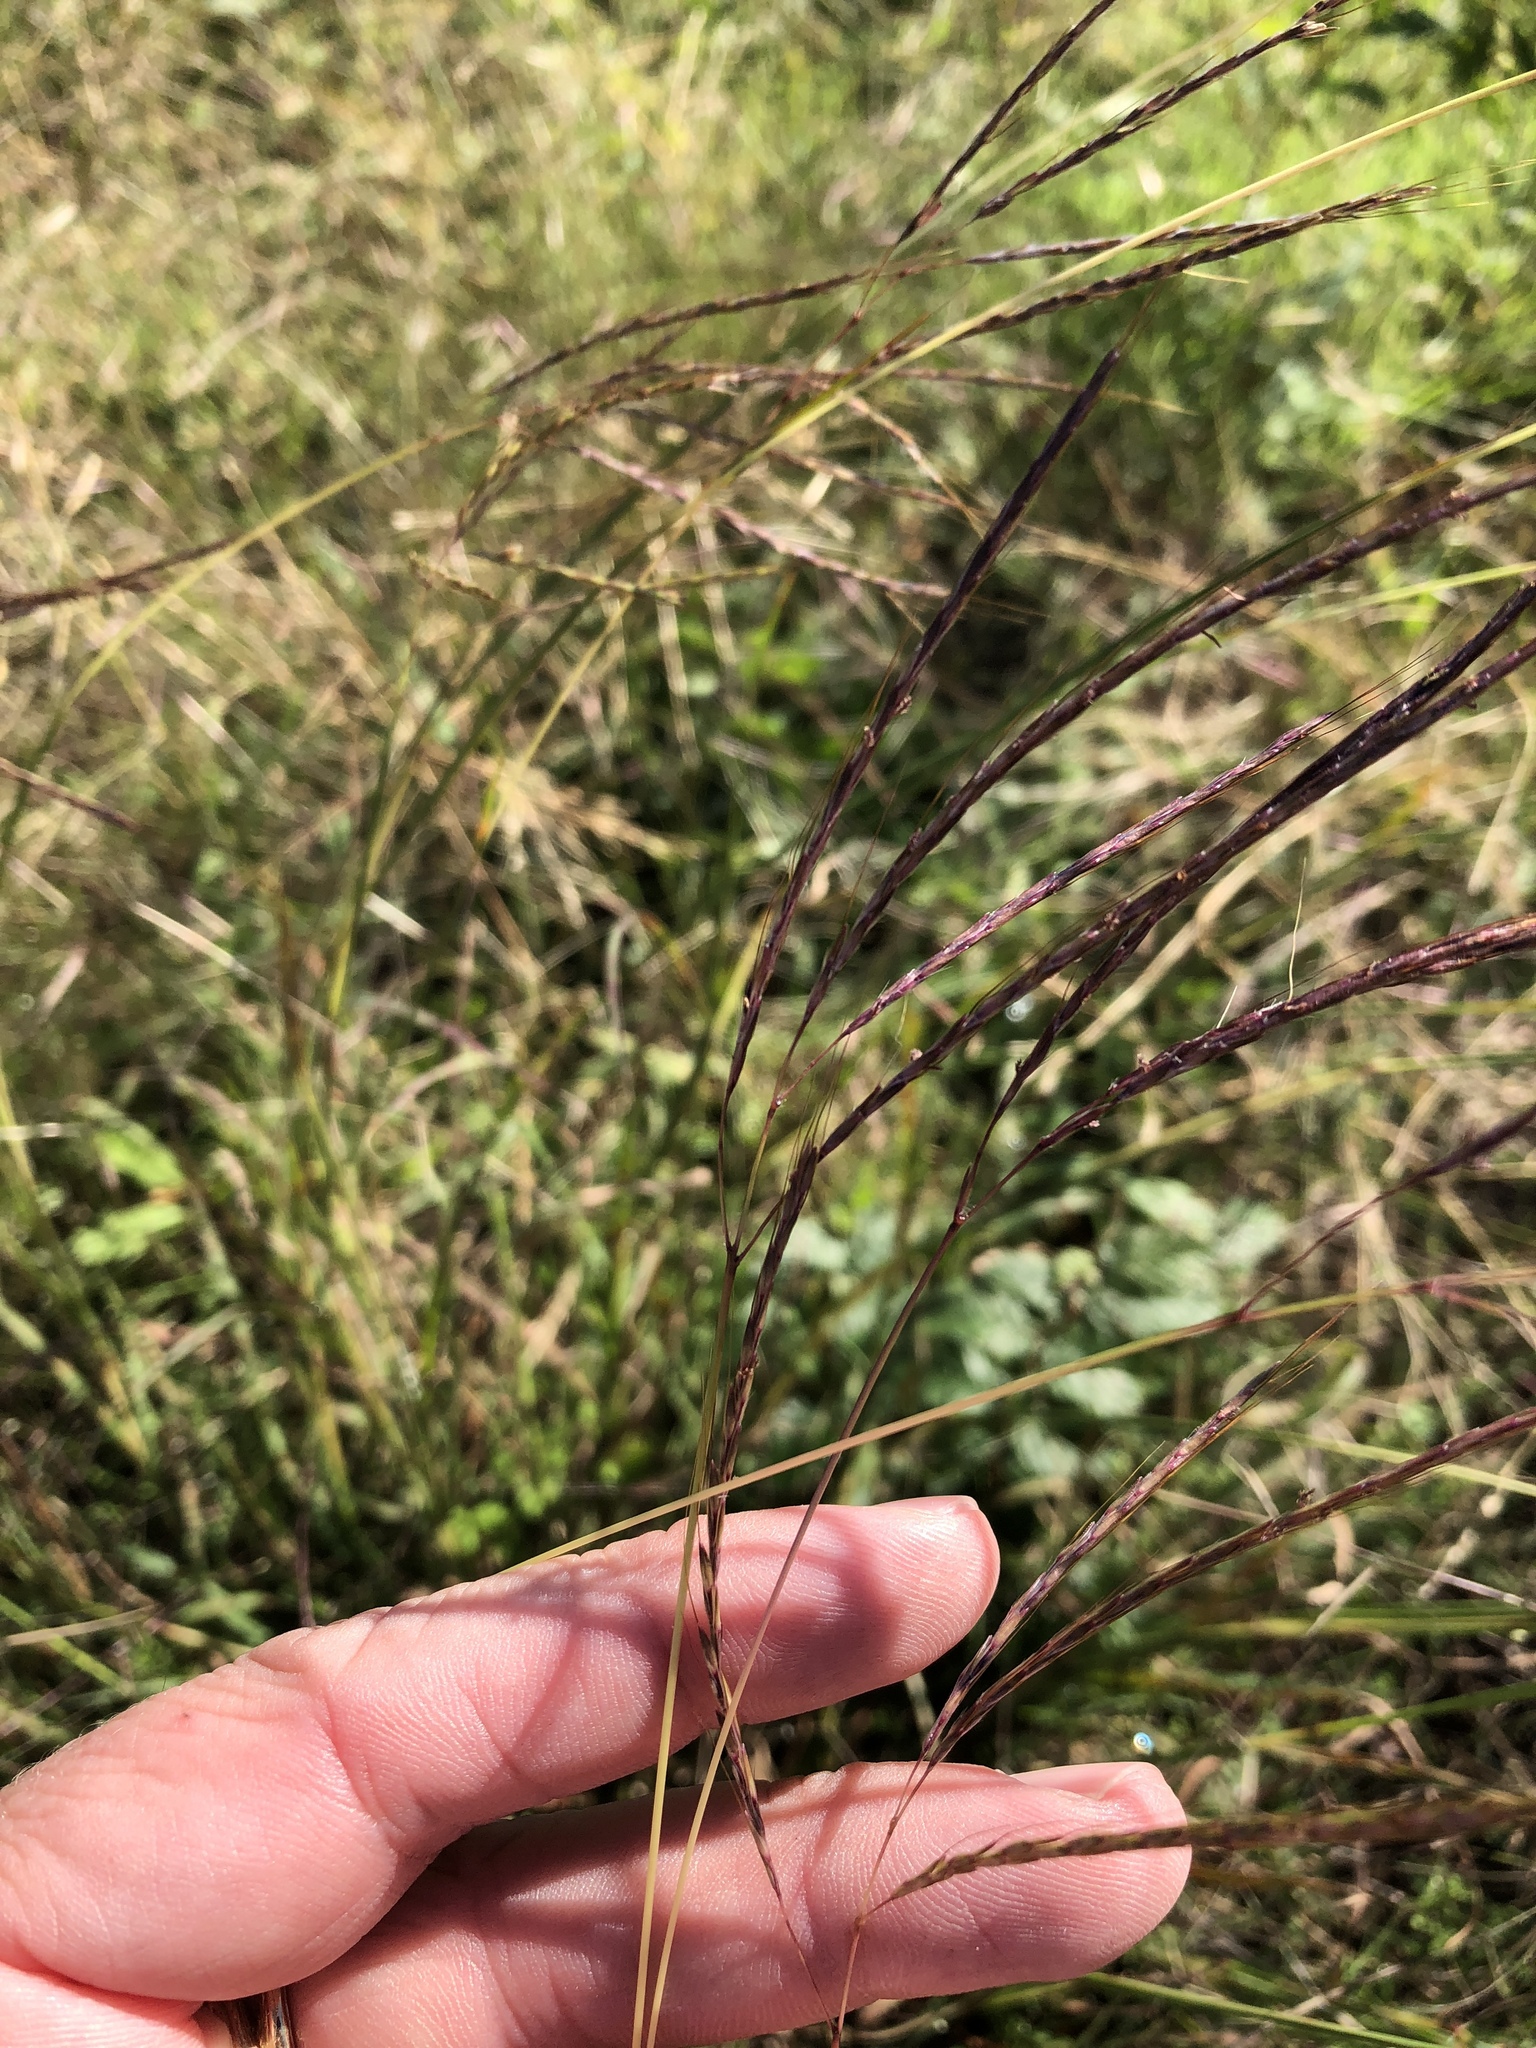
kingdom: Plantae
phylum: Tracheophyta
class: Liliopsida
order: Poales
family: Poaceae
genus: Bothriochloa
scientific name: Bothriochloa ischaemum
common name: Yellow bluestem
